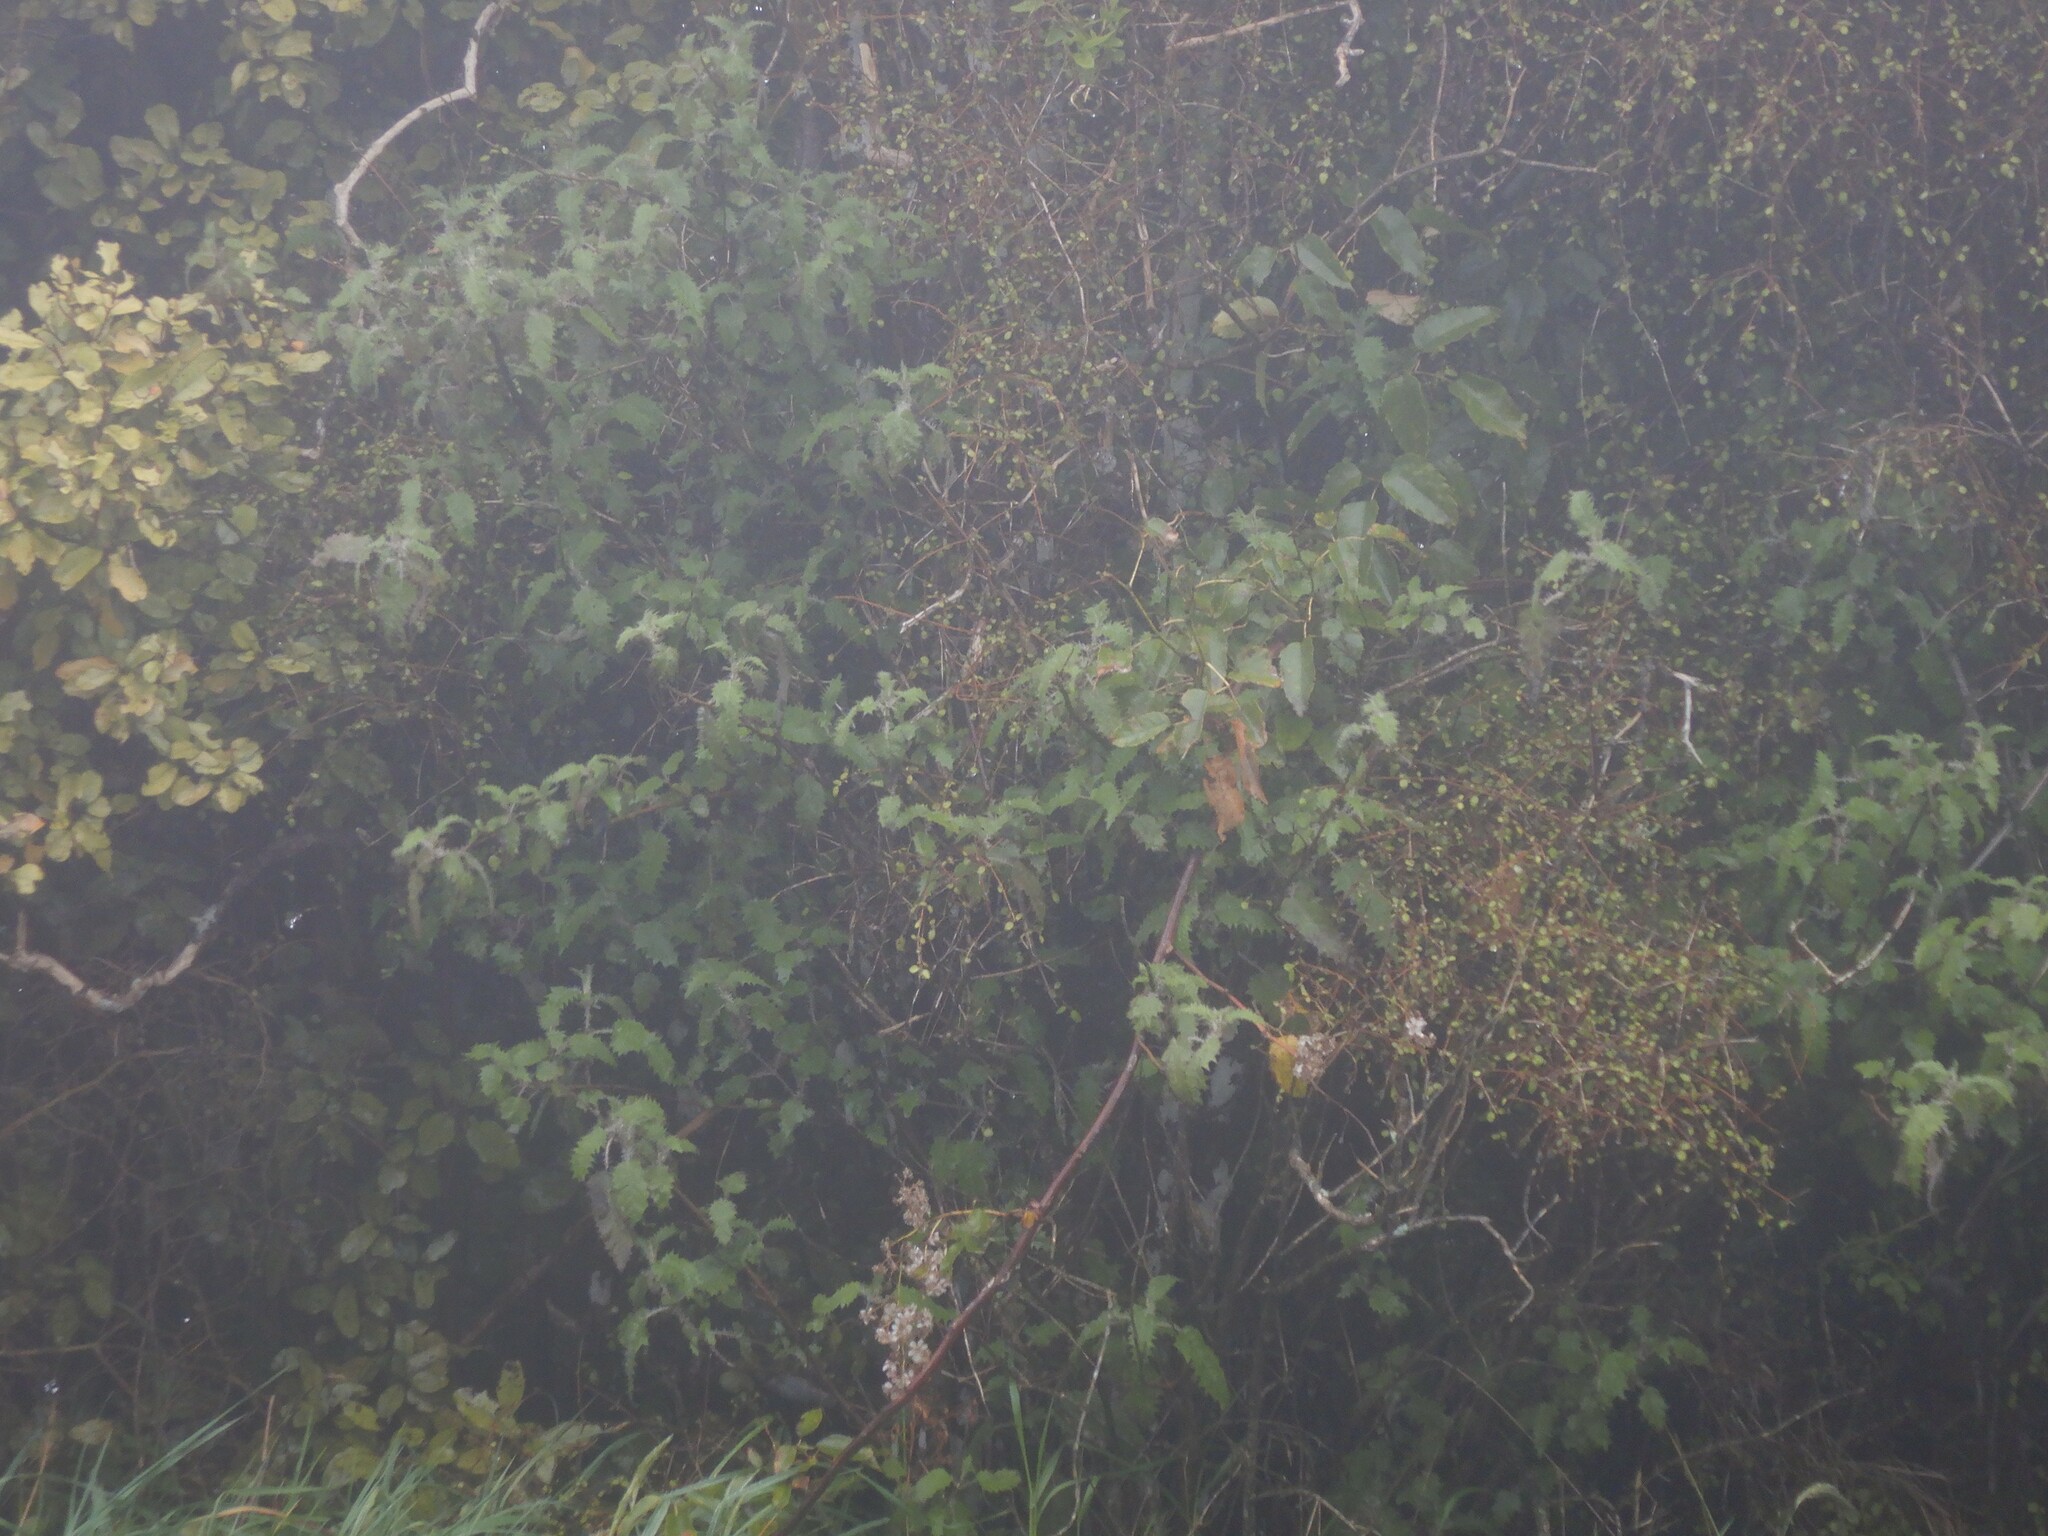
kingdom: Plantae
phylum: Tracheophyta
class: Magnoliopsida
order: Rosales
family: Urticaceae
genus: Urtica
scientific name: Urtica ferox
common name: Tree nettle
